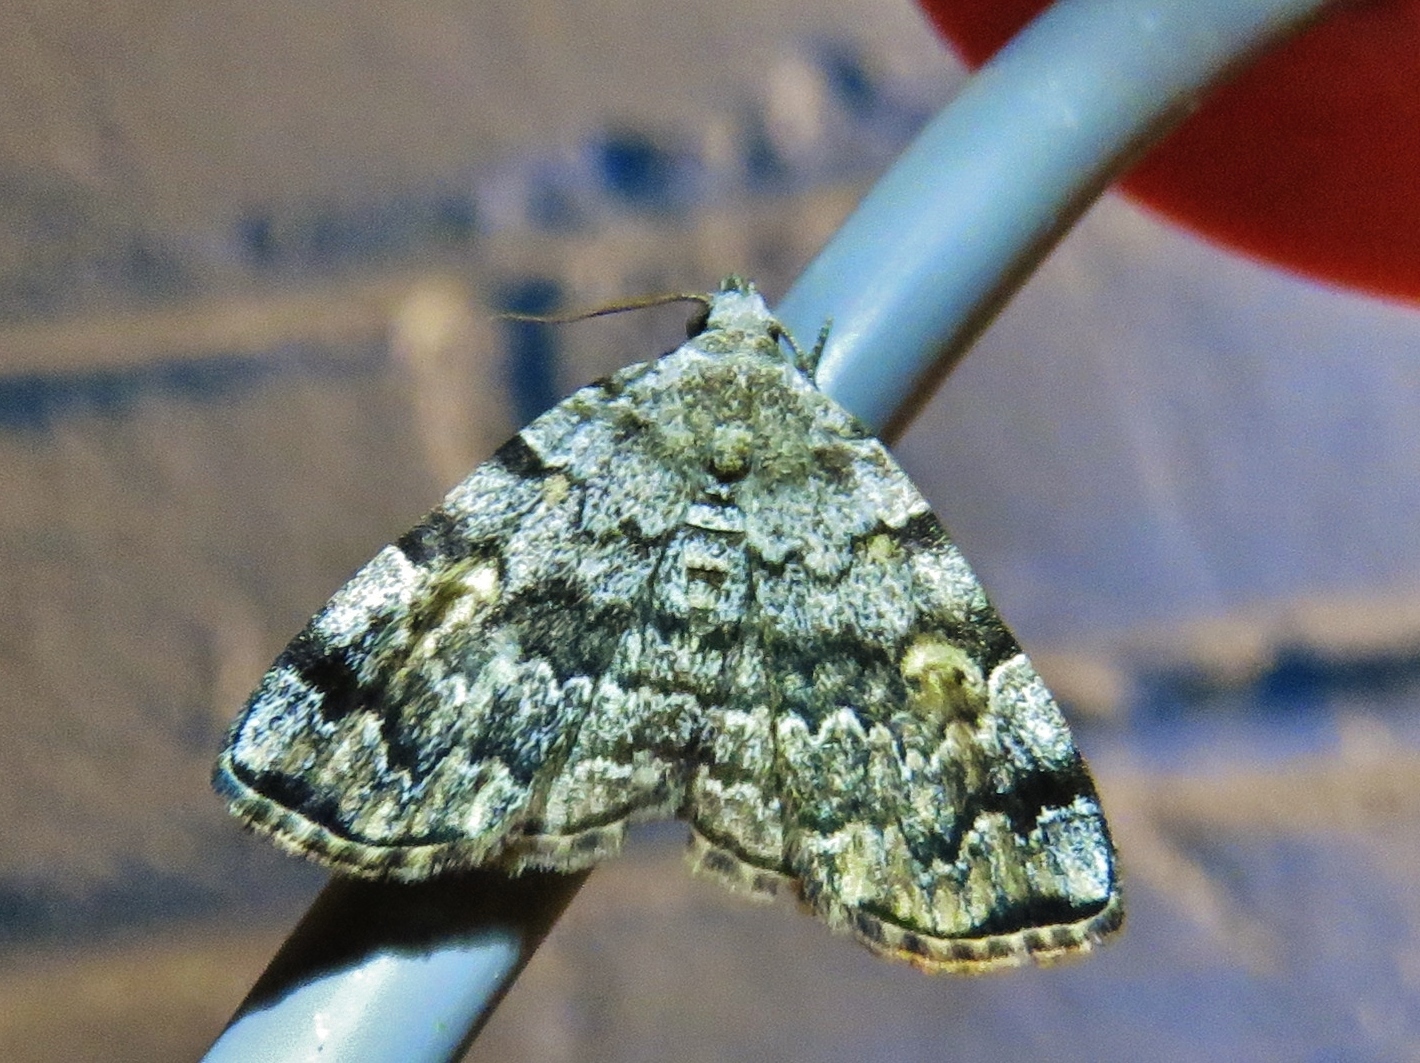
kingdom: Animalia
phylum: Arthropoda
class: Insecta
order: Lepidoptera
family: Erebidae
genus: Idia
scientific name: Idia americalis
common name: American idia moth
